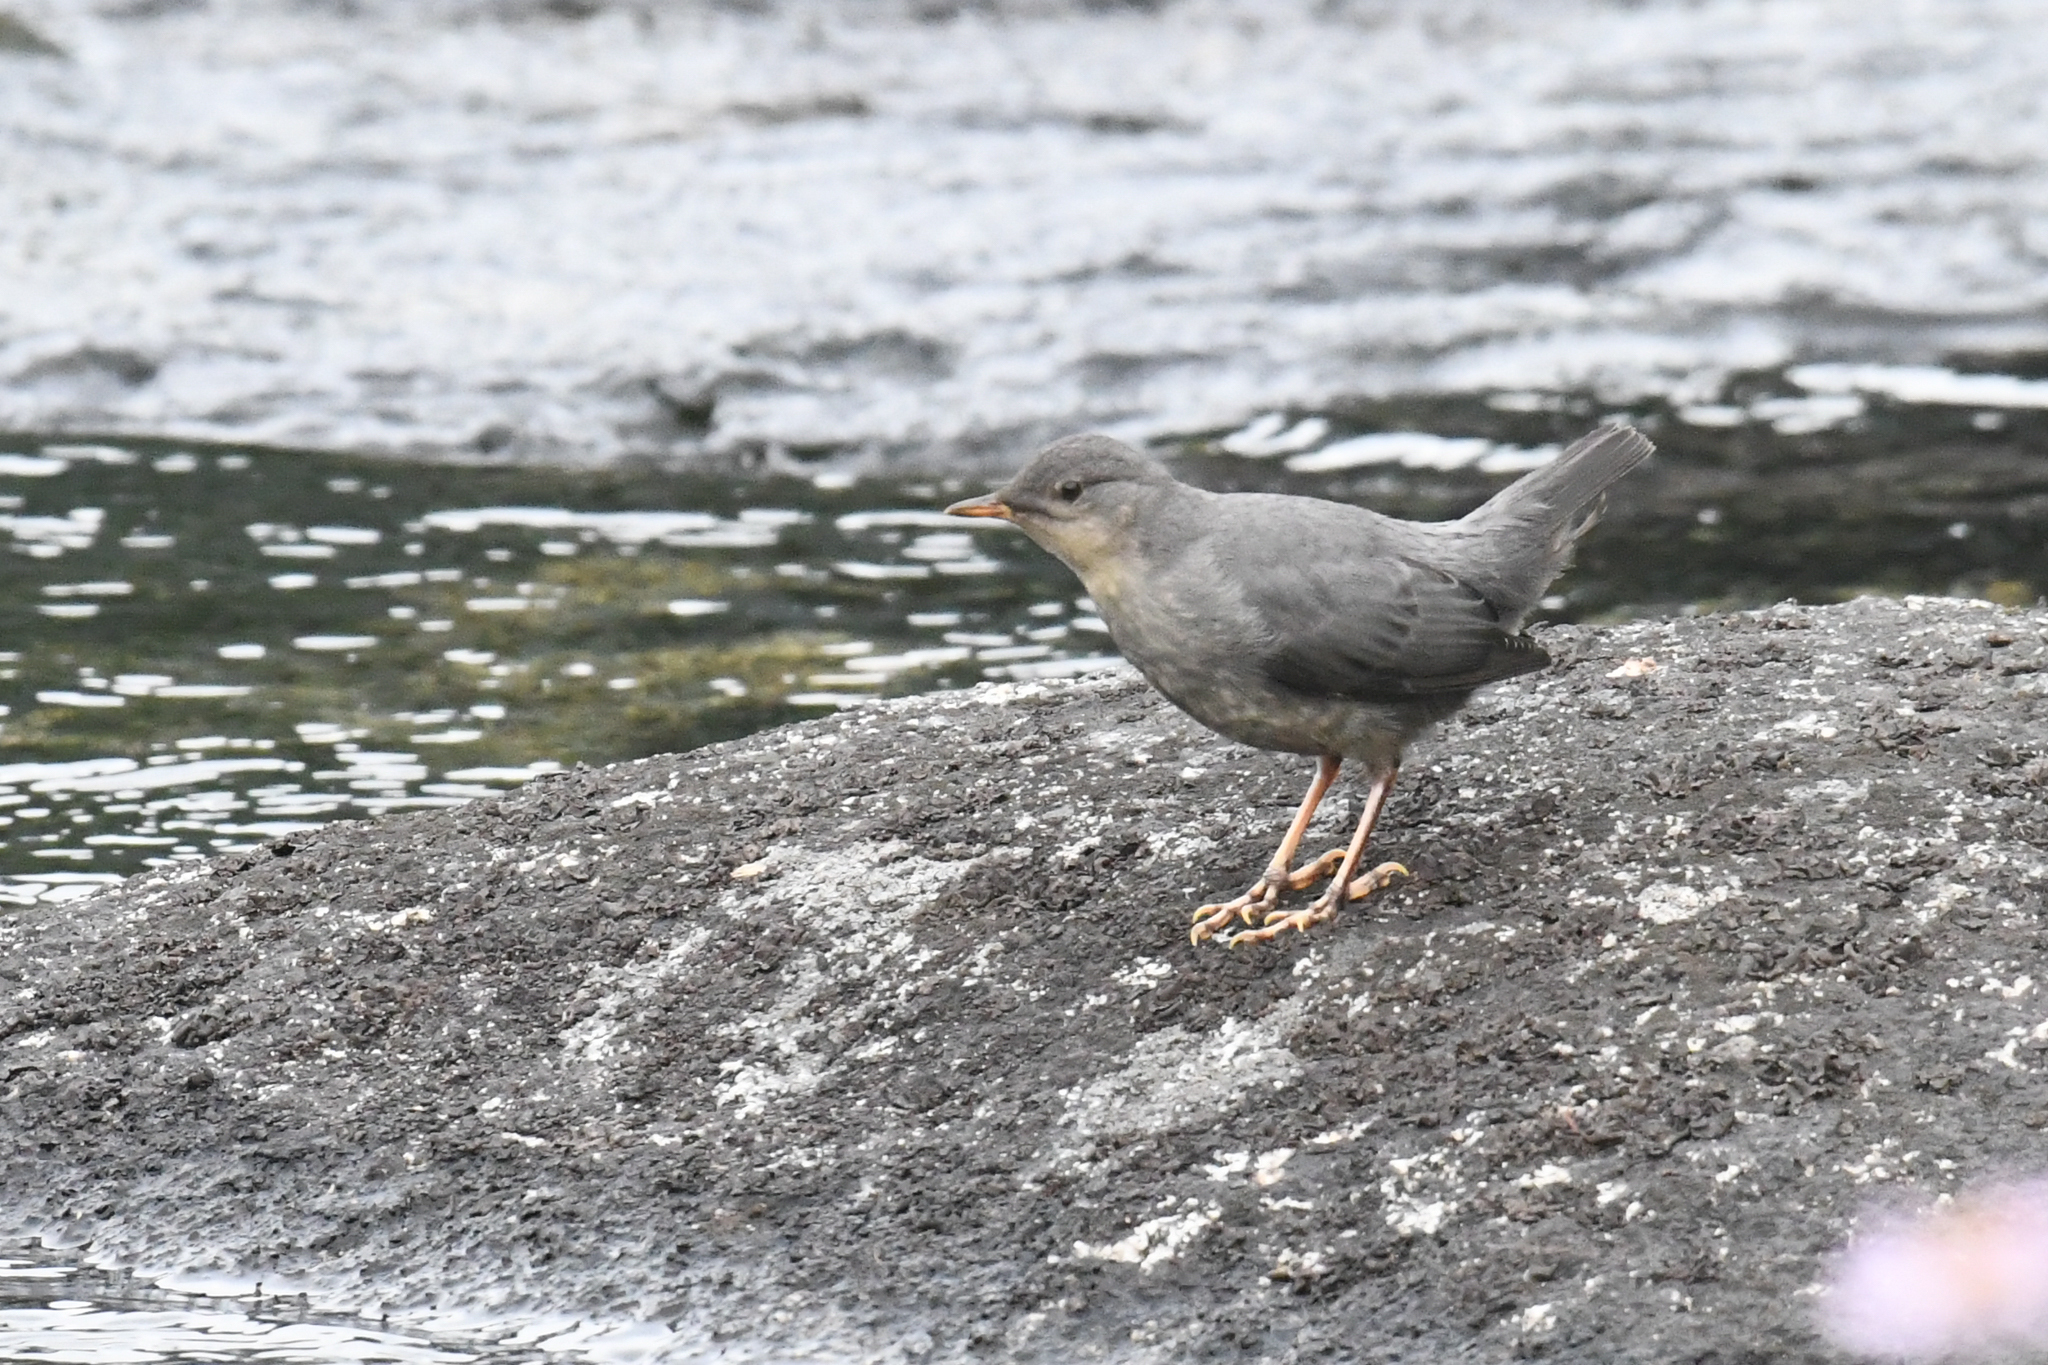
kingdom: Animalia
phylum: Chordata
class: Aves
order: Passeriformes
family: Cinclidae
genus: Cinclus
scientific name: Cinclus mexicanus
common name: American dipper
